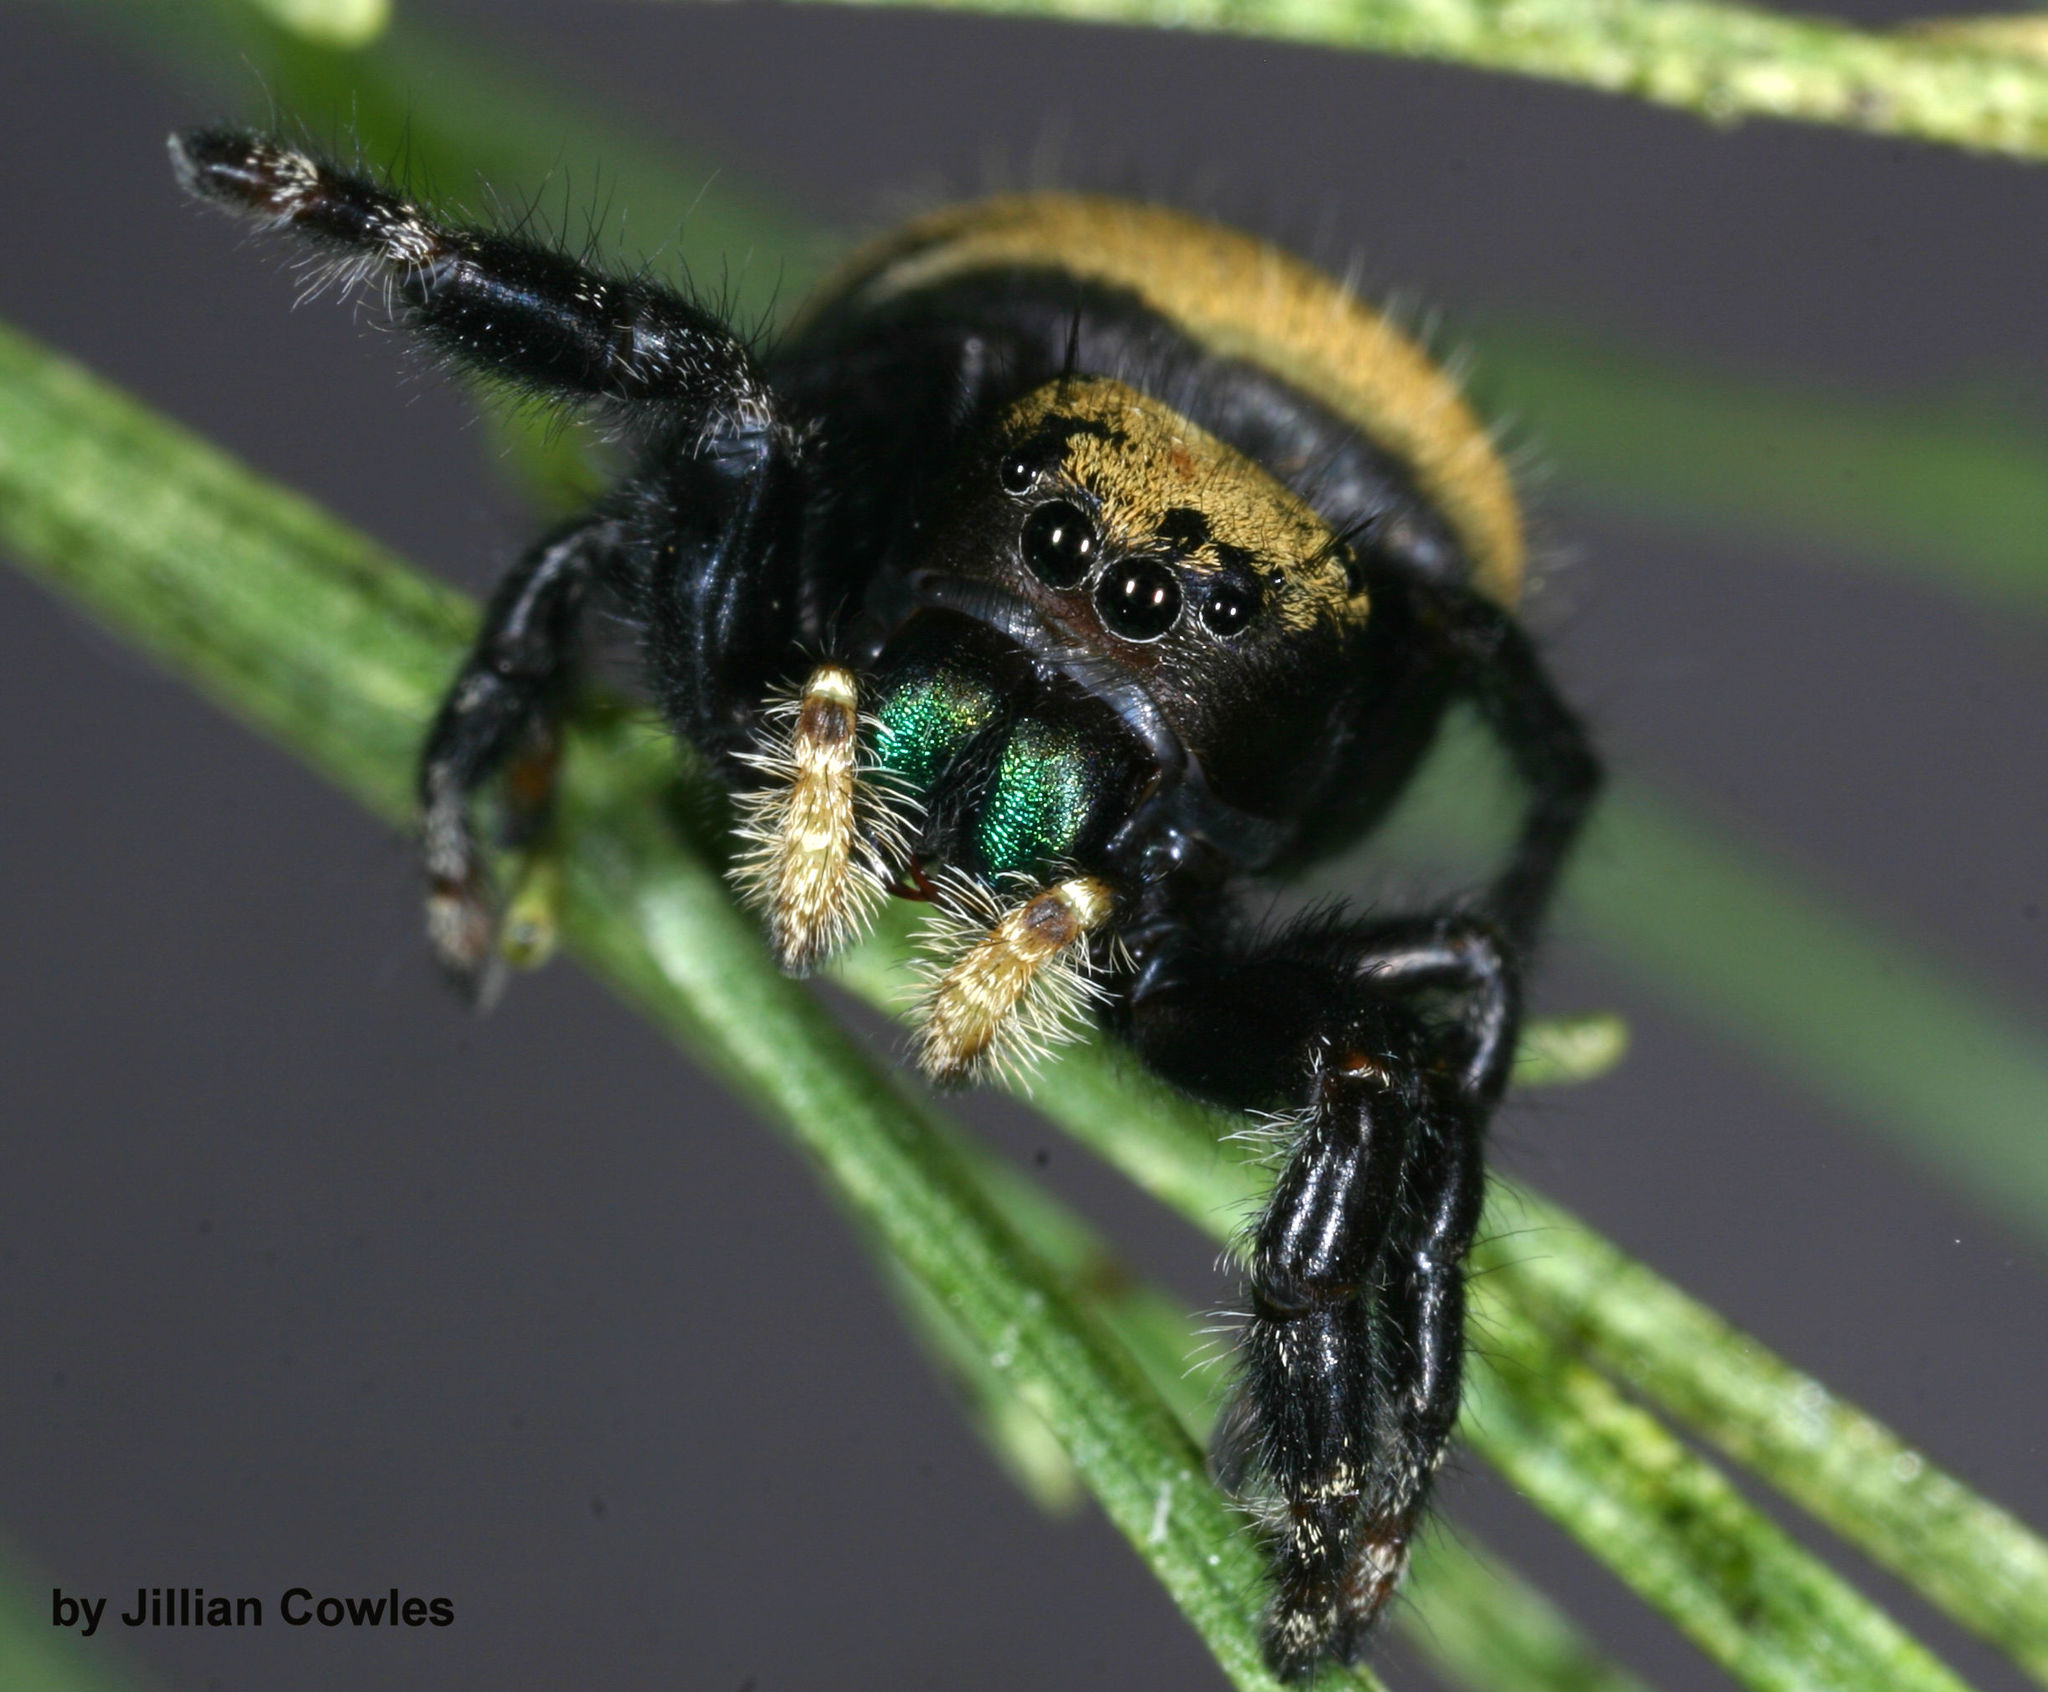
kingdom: Animalia
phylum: Arthropoda
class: Arachnida
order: Araneae
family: Salticidae
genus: Phidippus
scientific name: Phidippus apacheanus
